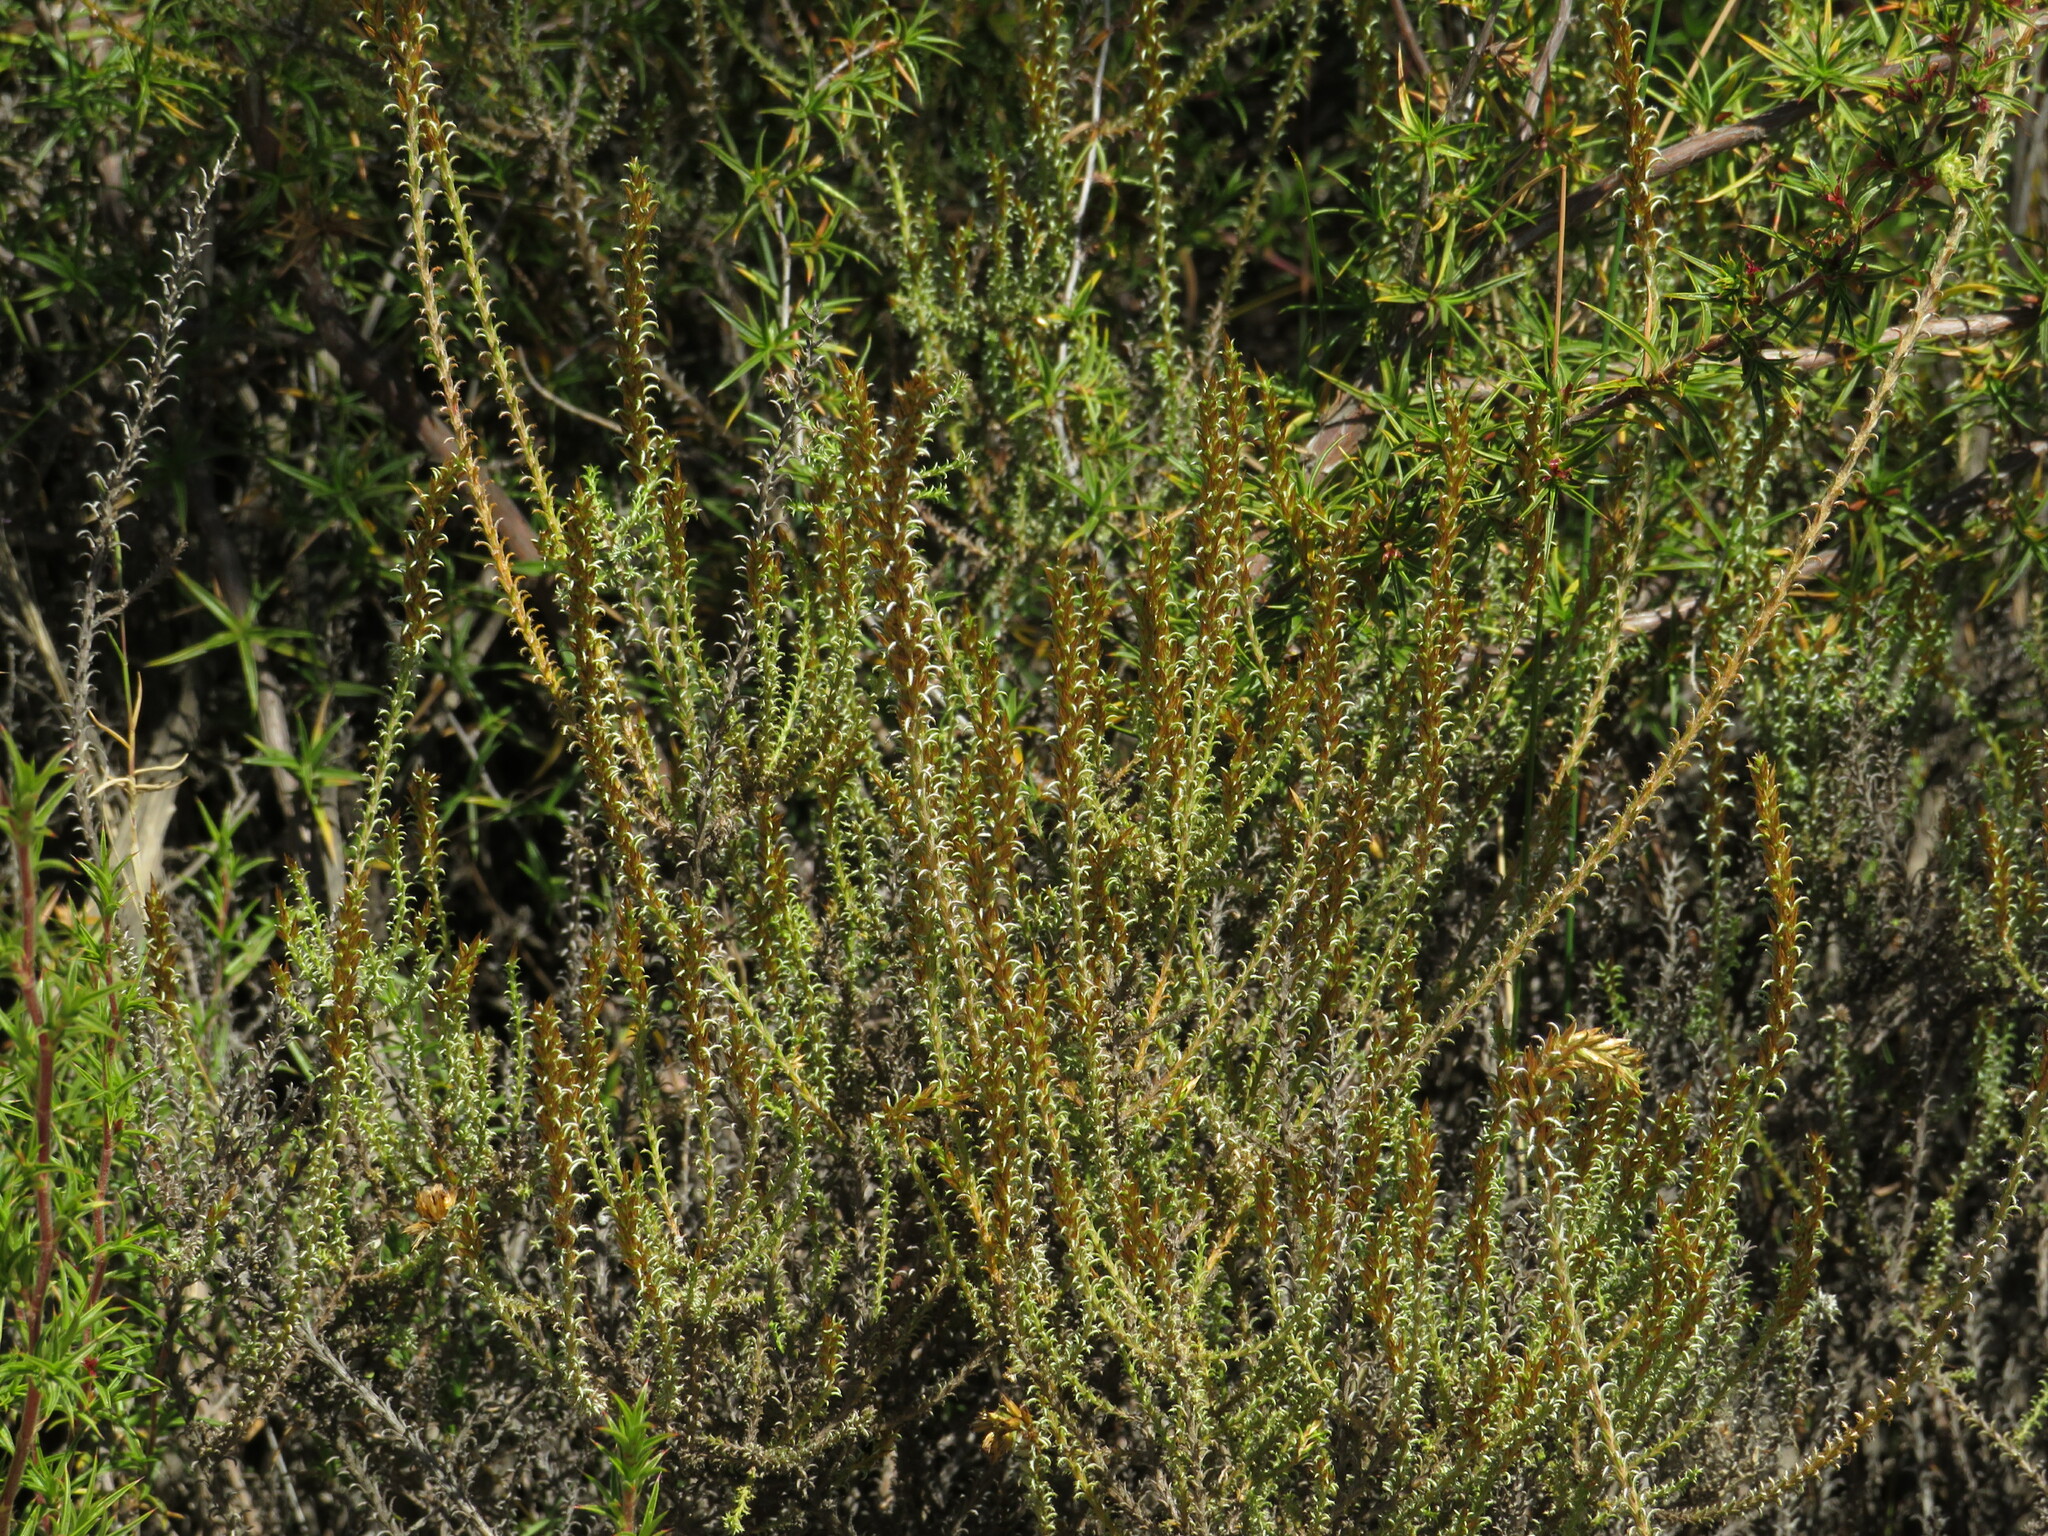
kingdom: Plantae
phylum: Tracheophyta
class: Magnoliopsida
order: Asterales
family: Asteraceae
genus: Myrovernix
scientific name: Myrovernix glandulosus
